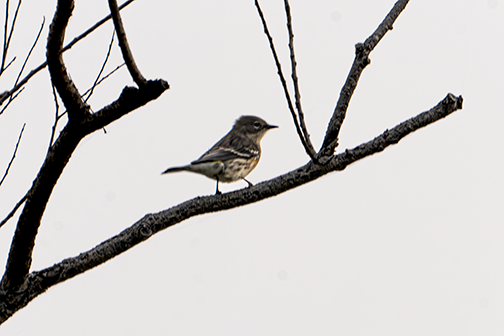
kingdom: Animalia
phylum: Chordata
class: Aves
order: Passeriformes
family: Parulidae
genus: Setophaga
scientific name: Setophaga coronata
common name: Myrtle warbler
